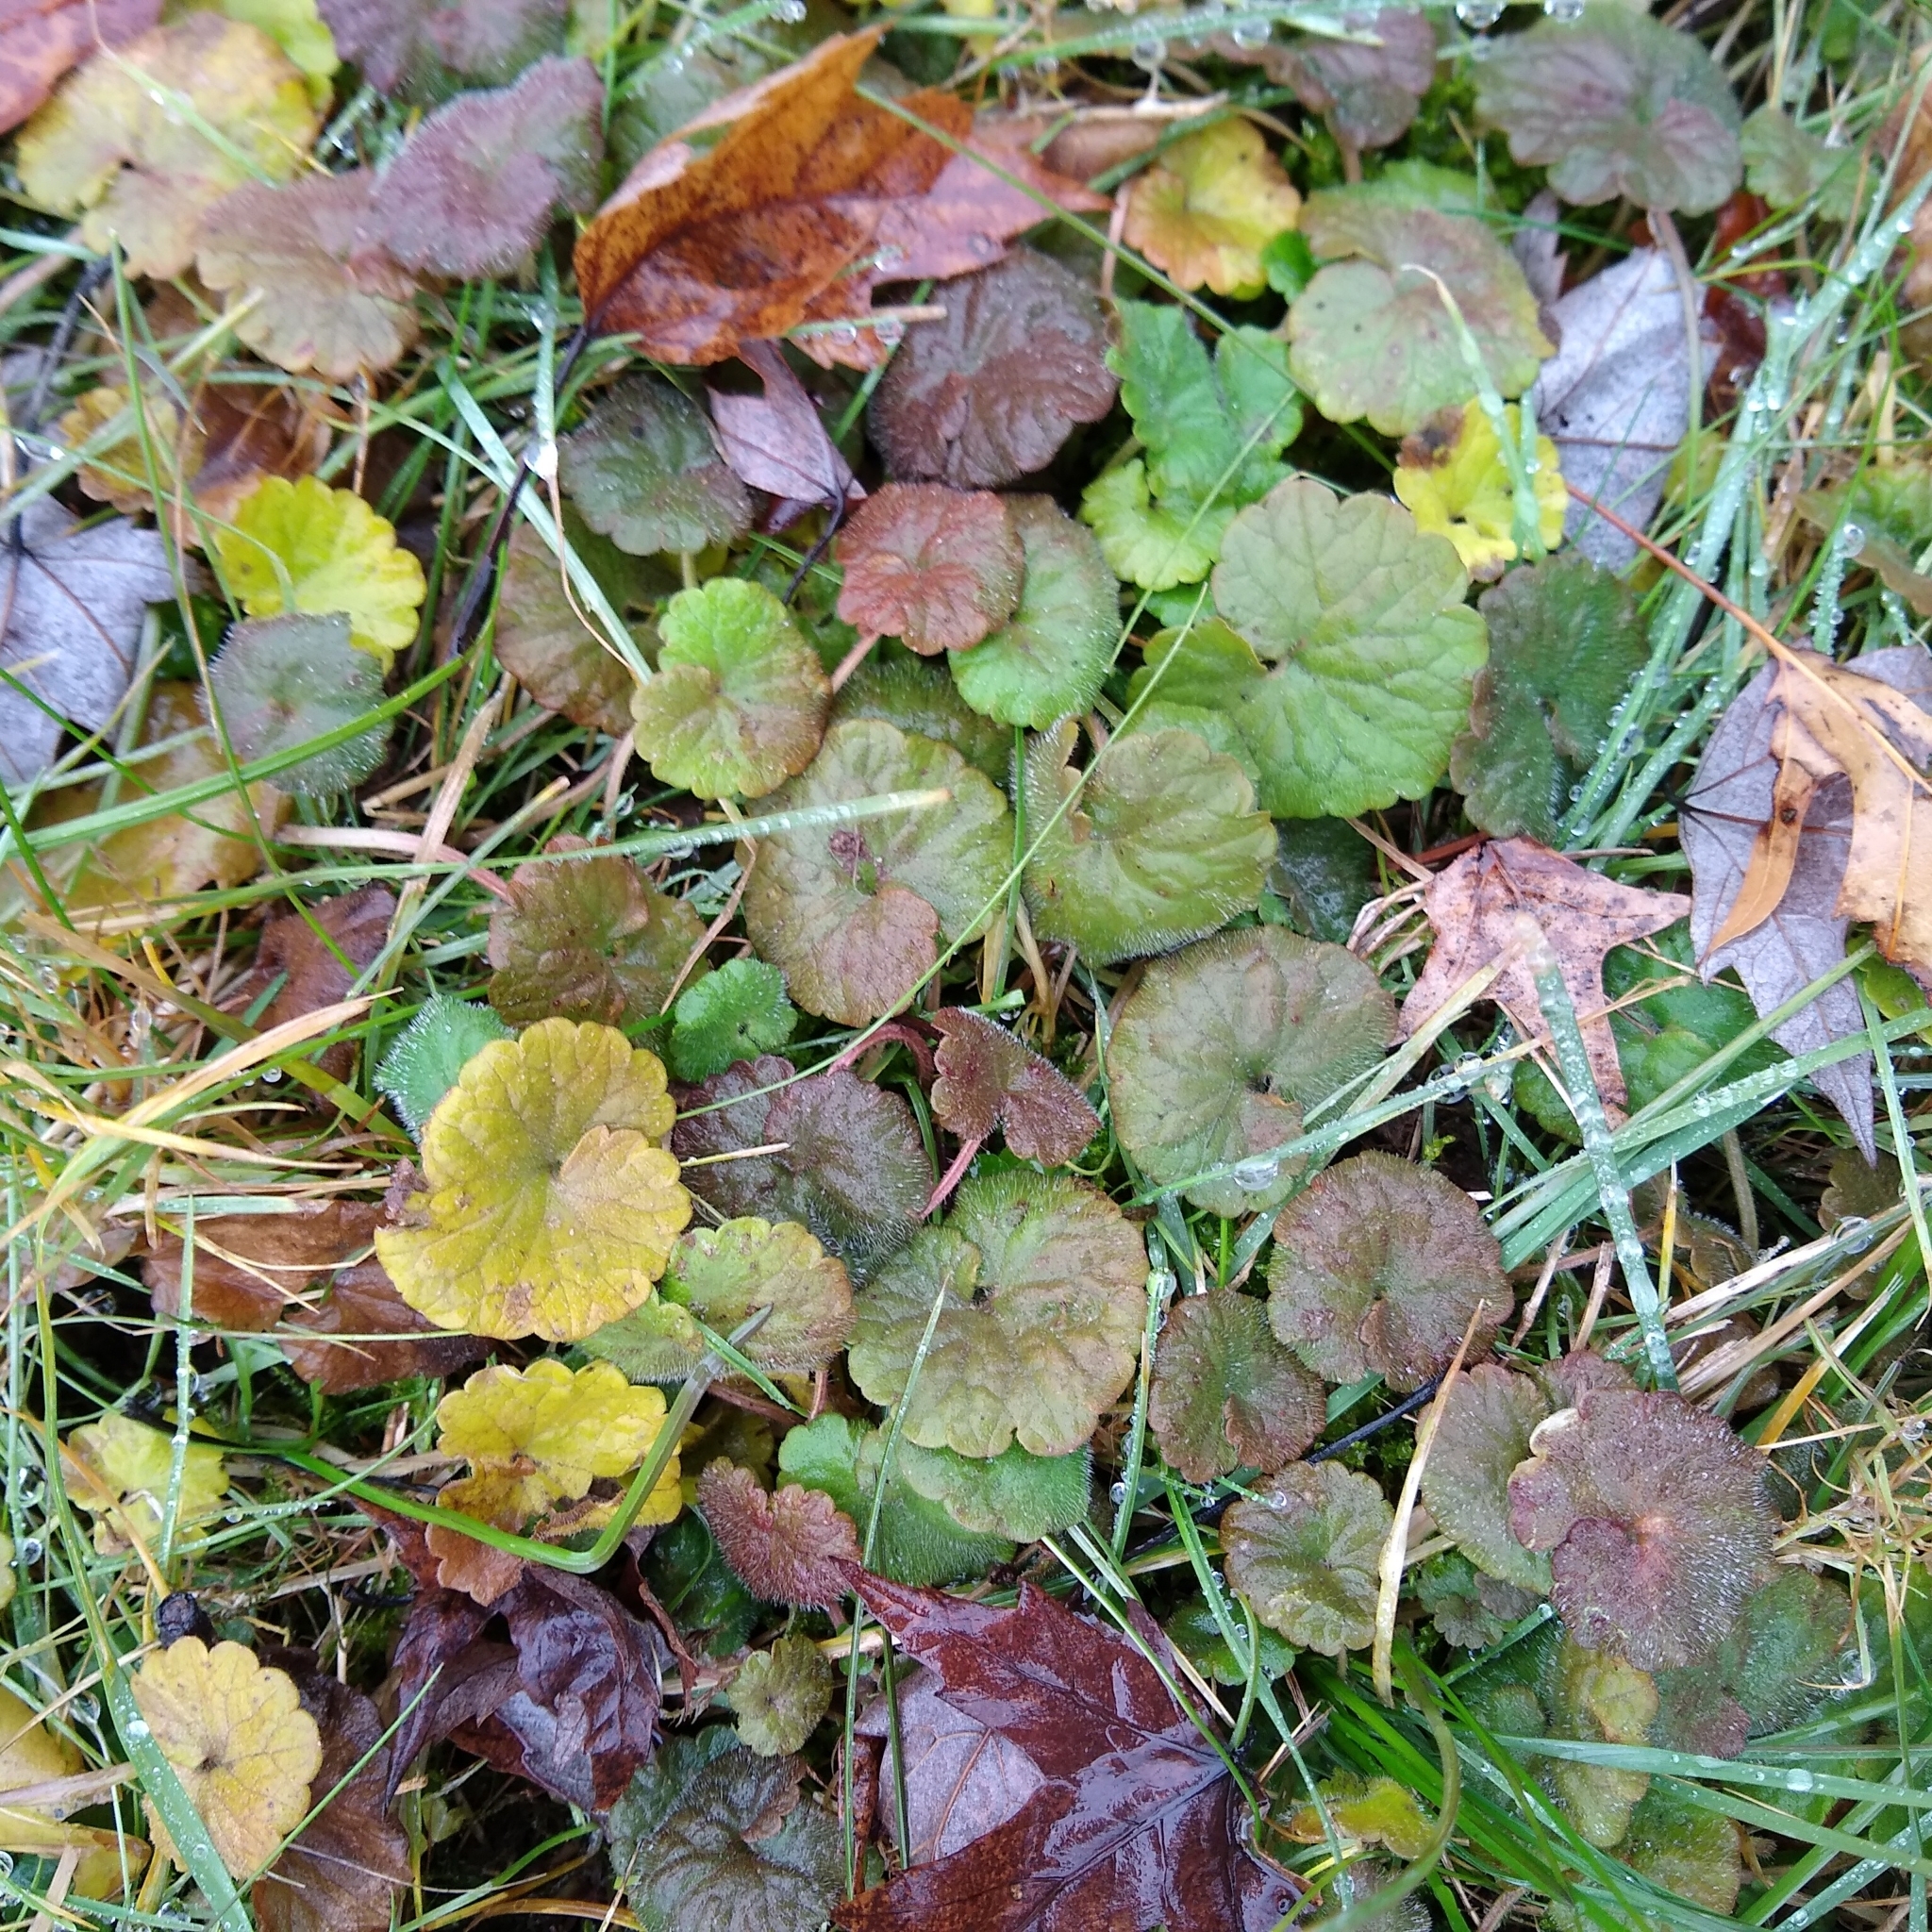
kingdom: Plantae
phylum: Tracheophyta
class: Magnoliopsida
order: Lamiales
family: Lamiaceae
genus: Glechoma
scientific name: Glechoma hederacea
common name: Ground ivy
